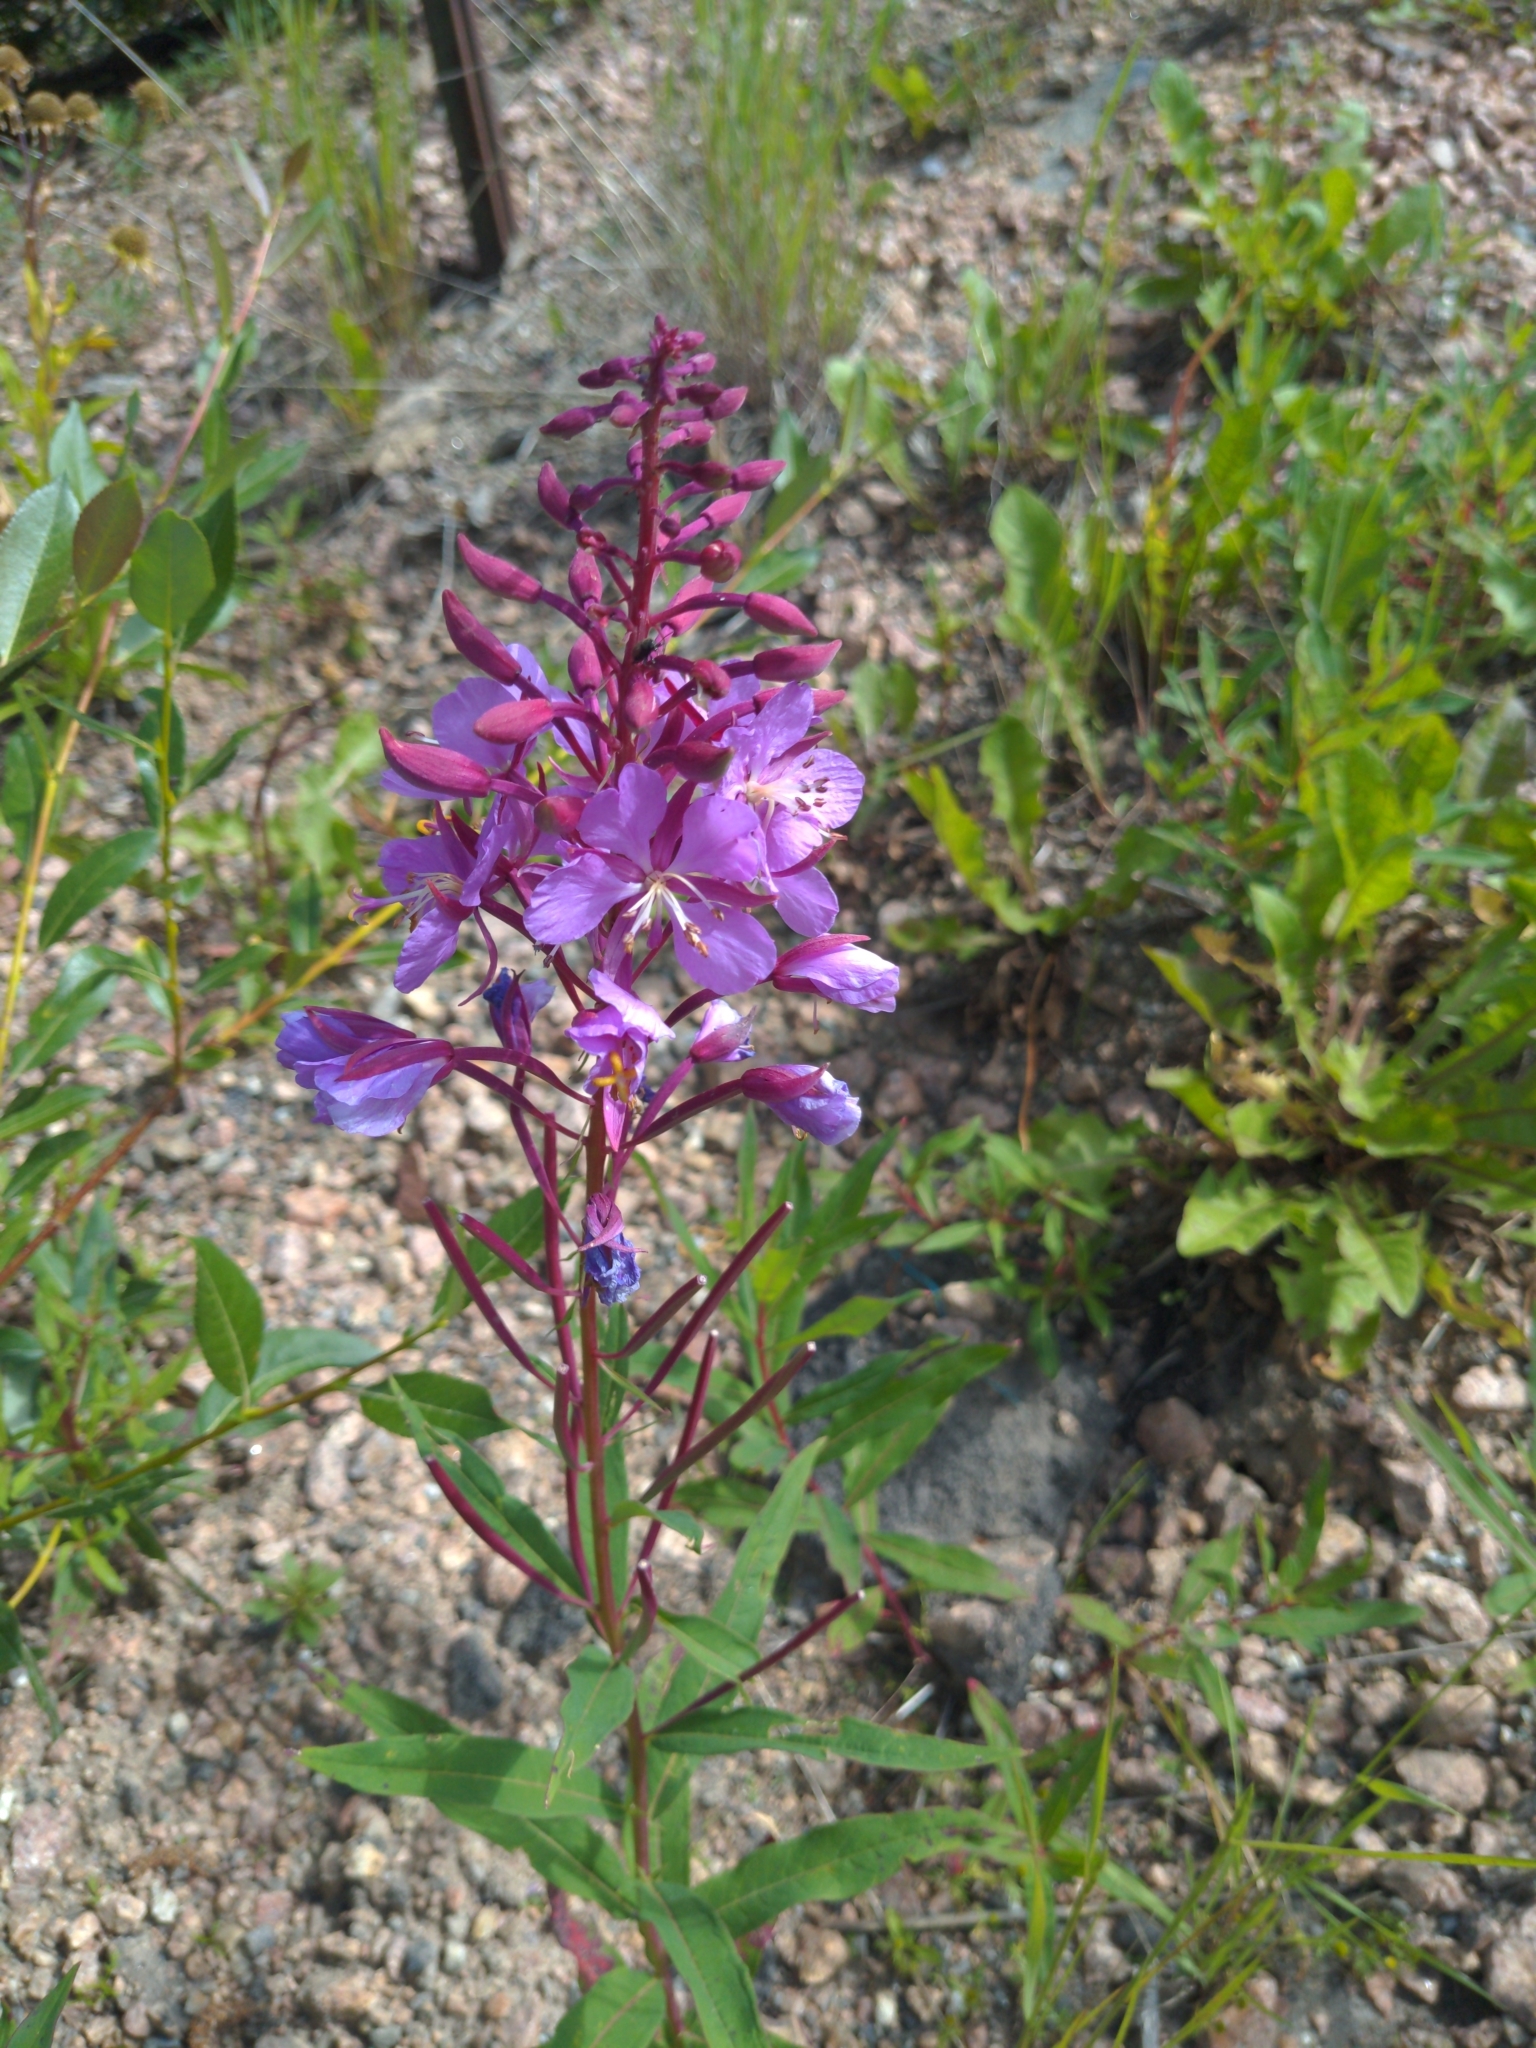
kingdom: Plantae
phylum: Tracheophyta
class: Magnoliopsida
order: Myrtales
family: Onagraceae
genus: Chamaenerion
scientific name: Chamaenerion angustifolium
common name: Fireweed
